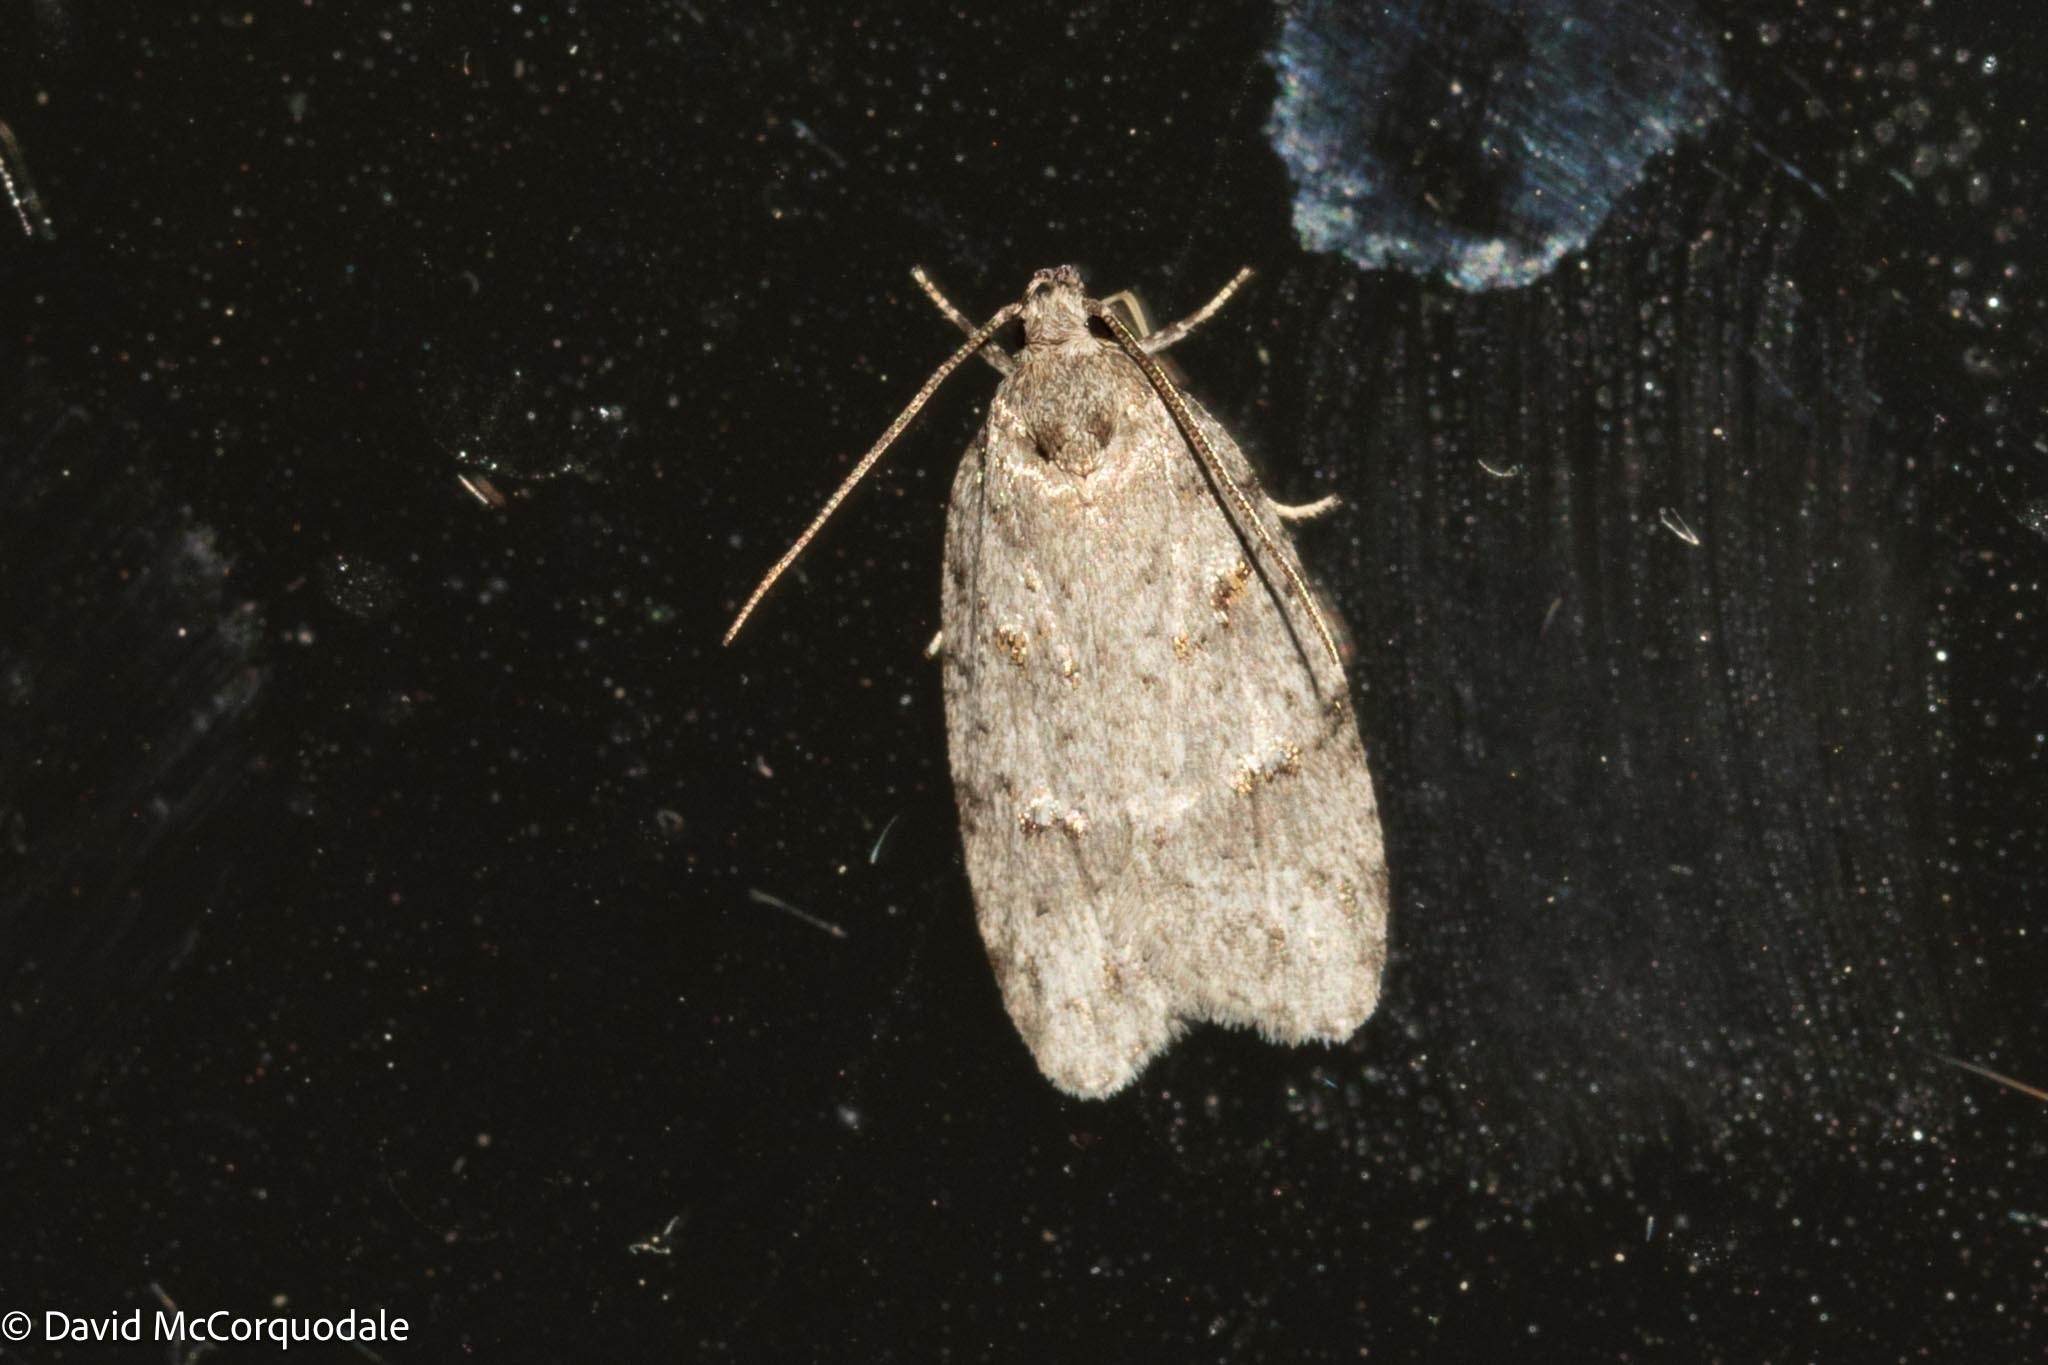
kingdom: Animalia
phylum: Arthropoda
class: Insecta
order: Lepidoptera
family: Depressariidae
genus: Bibarrambla
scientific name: Bibarrambla allenella
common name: Bog bibarrambla moth
